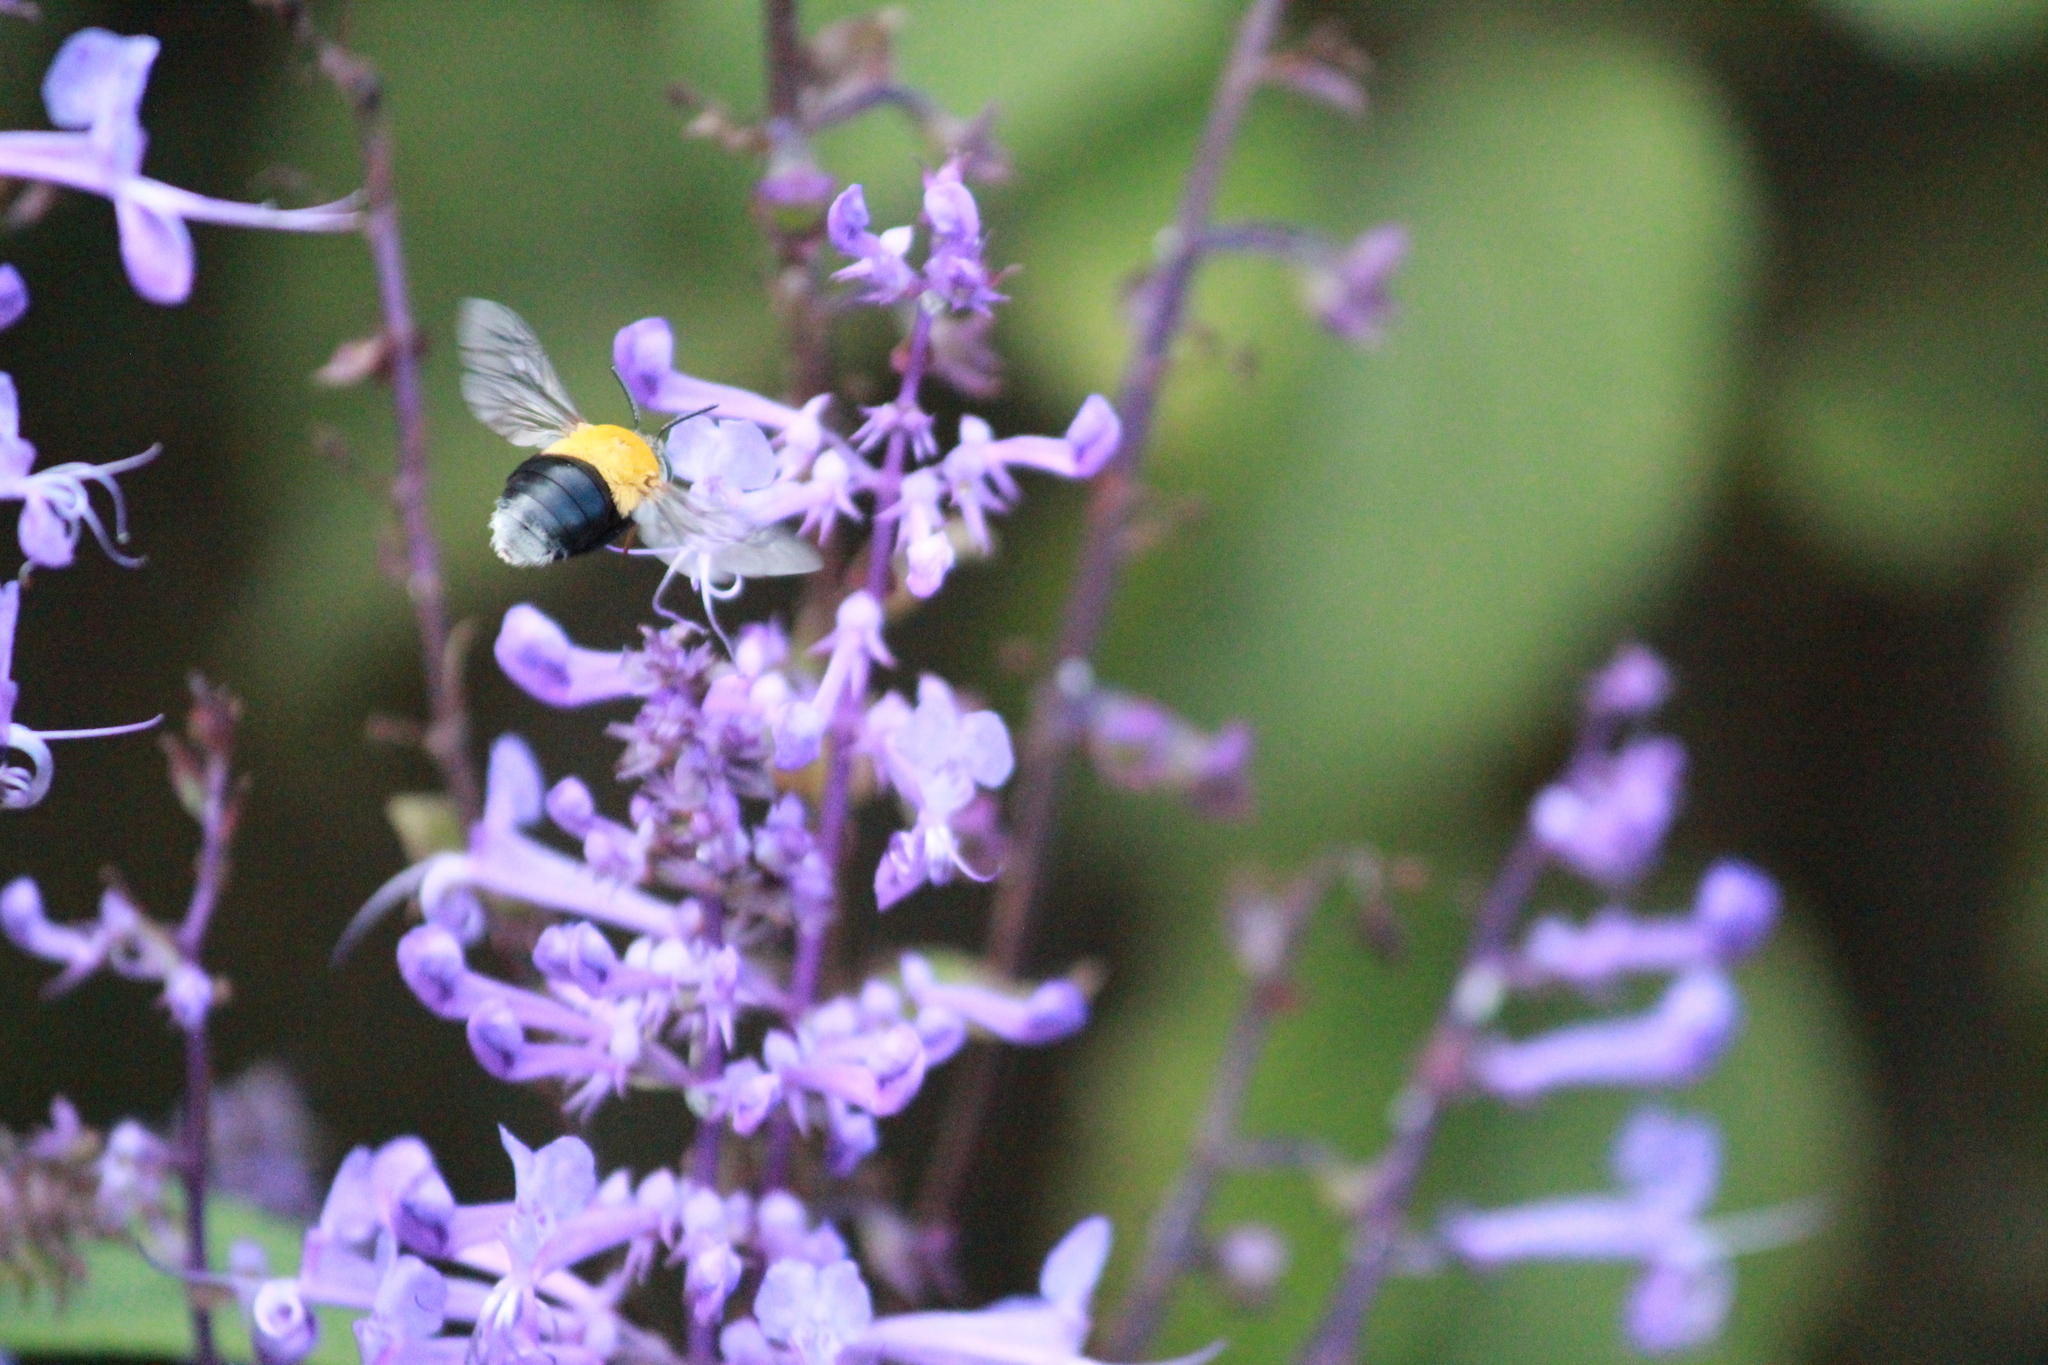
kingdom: Animalia
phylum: Arthropoda
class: Insecta
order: Hymenoptera
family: Apidae
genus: Amegilla
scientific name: Amegilla acraensis
